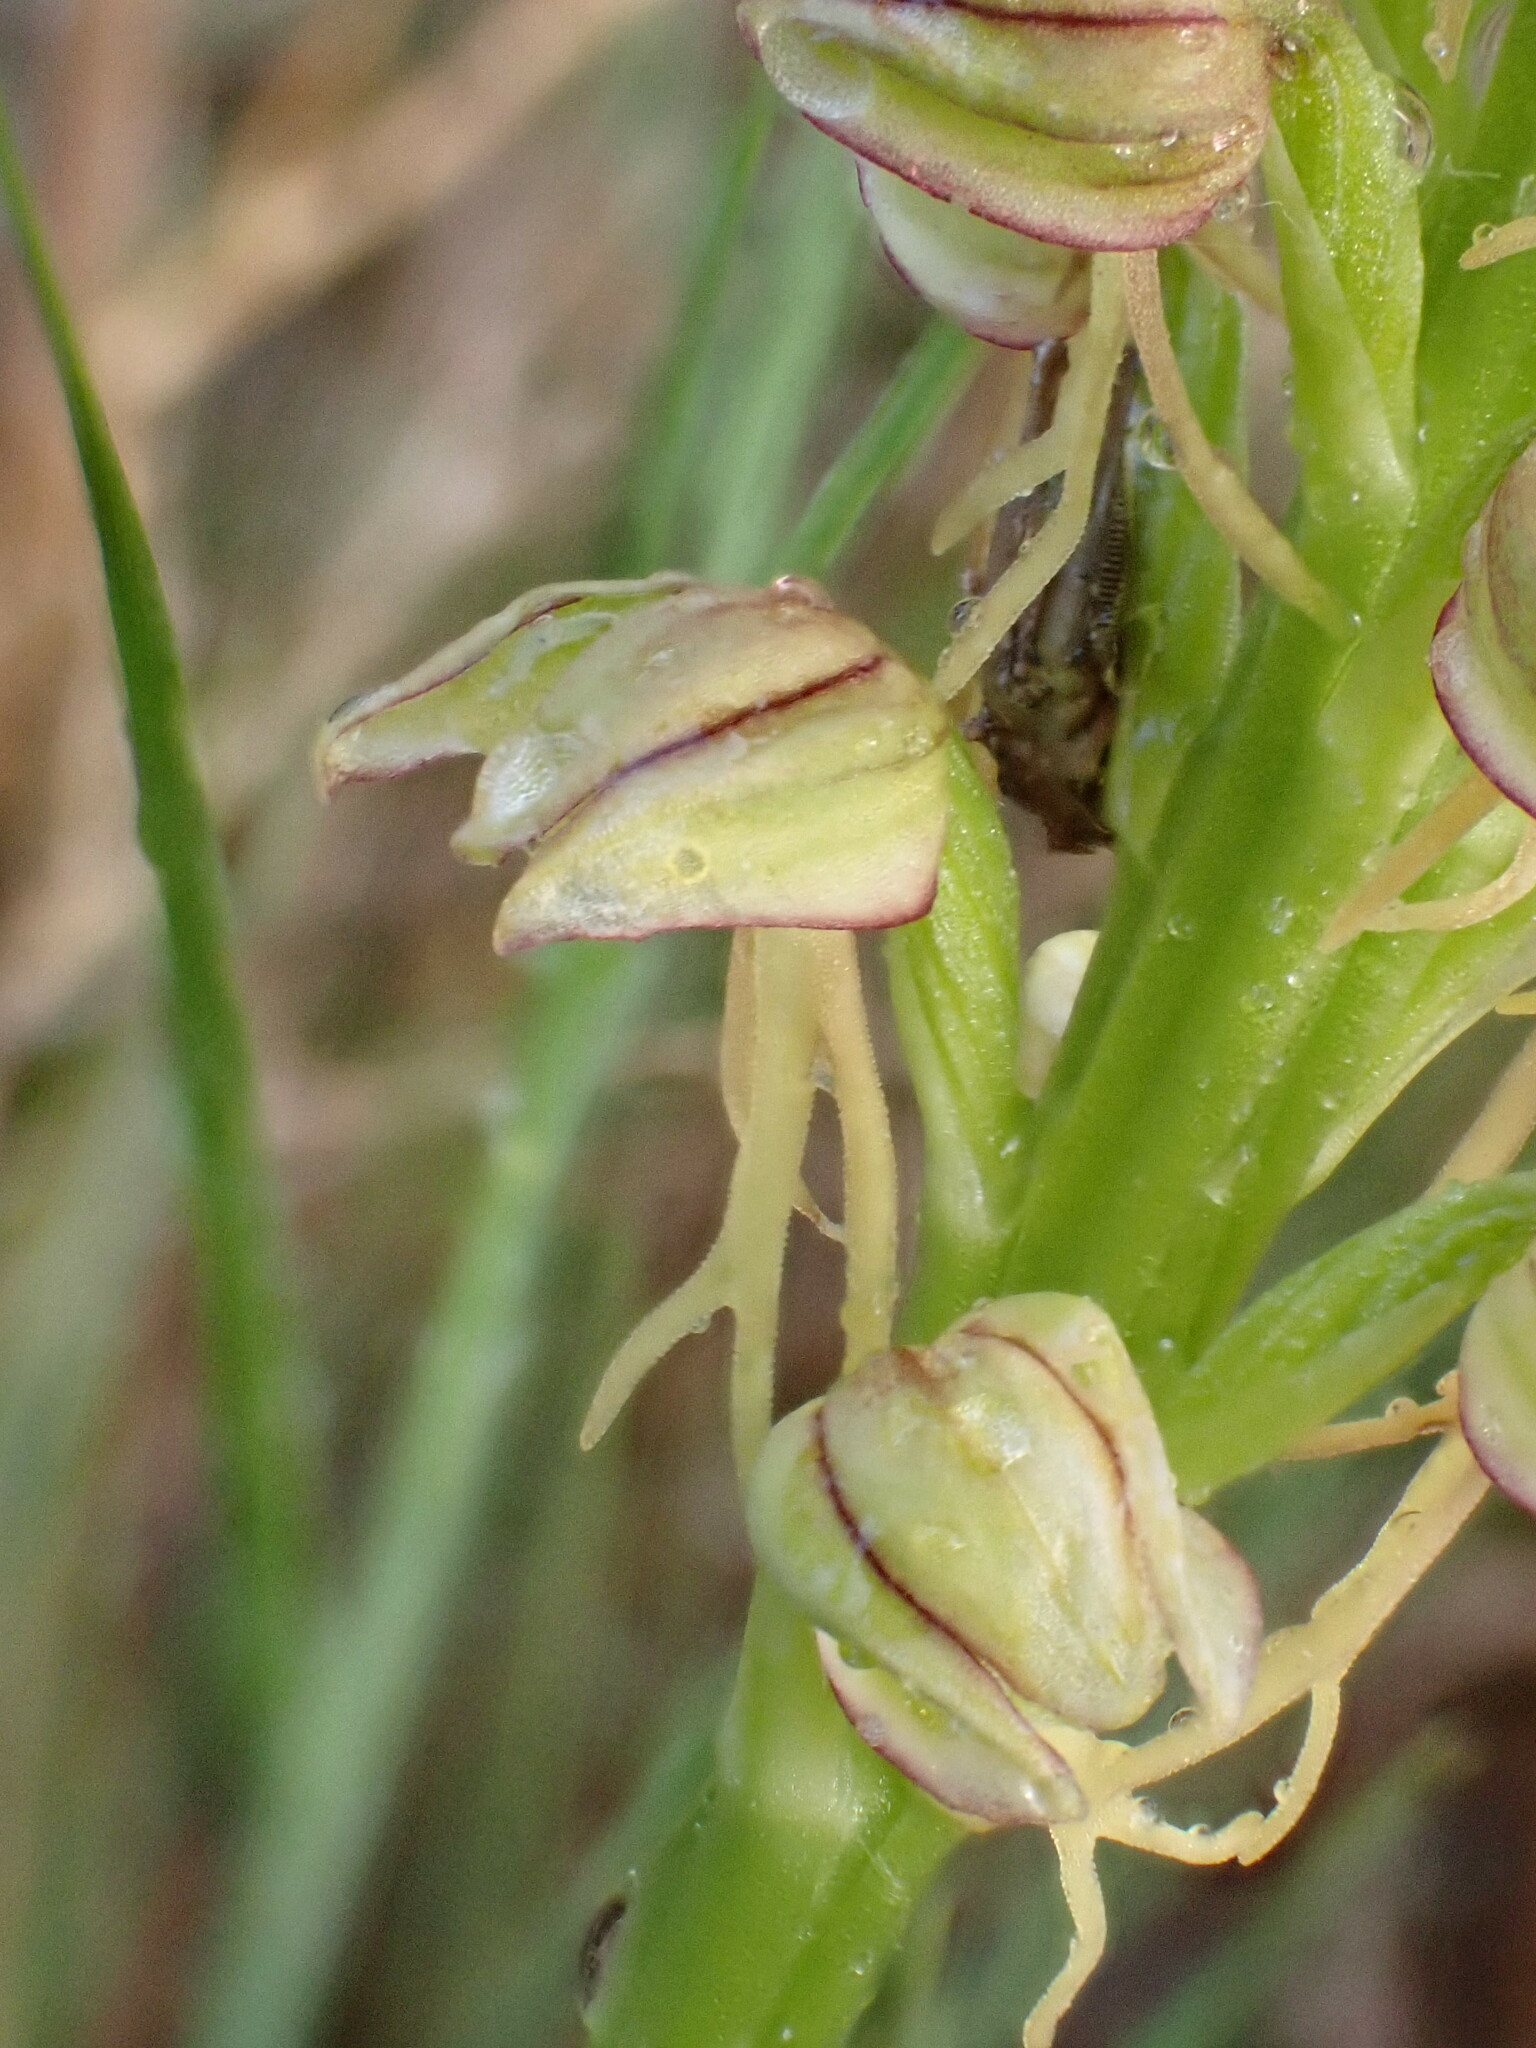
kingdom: Plantae
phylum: Tracheophyta
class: Liliopsida
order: Asparagales
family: Orchidaceae
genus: Orchis
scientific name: Orchis anthropophora
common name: Man orchid
